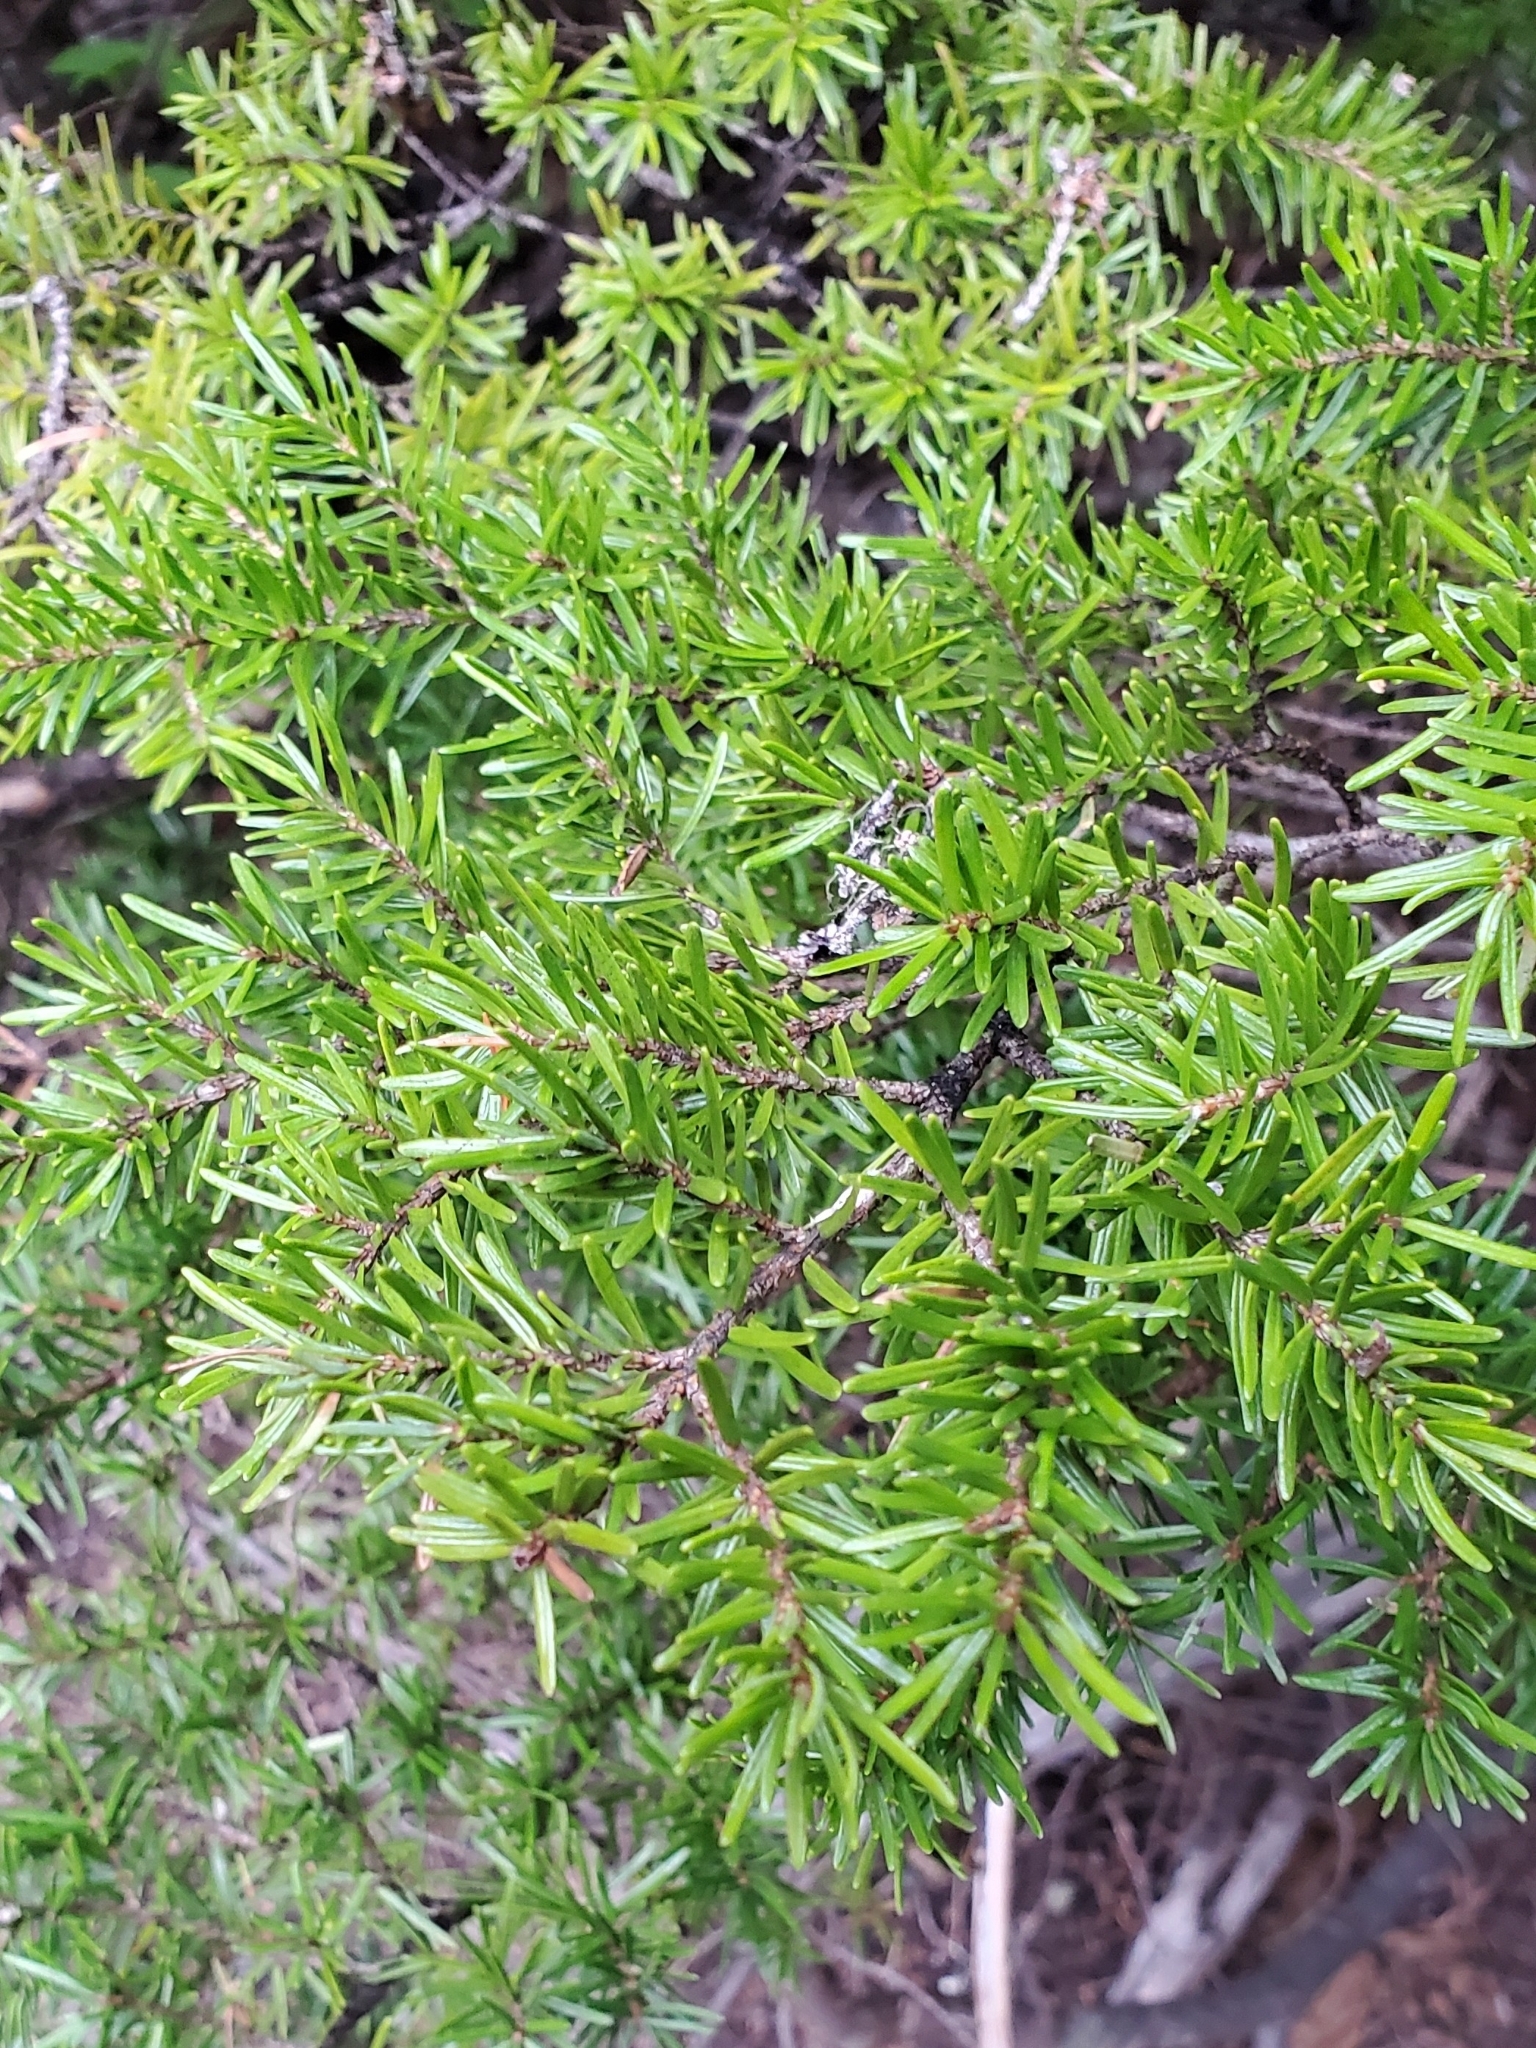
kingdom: Plantae
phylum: Tracheophyta
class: Pinopsida
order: Pinales
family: Pinaceae
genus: Tsuga
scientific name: Tsuga mertensiana
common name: Mountain hemlock
